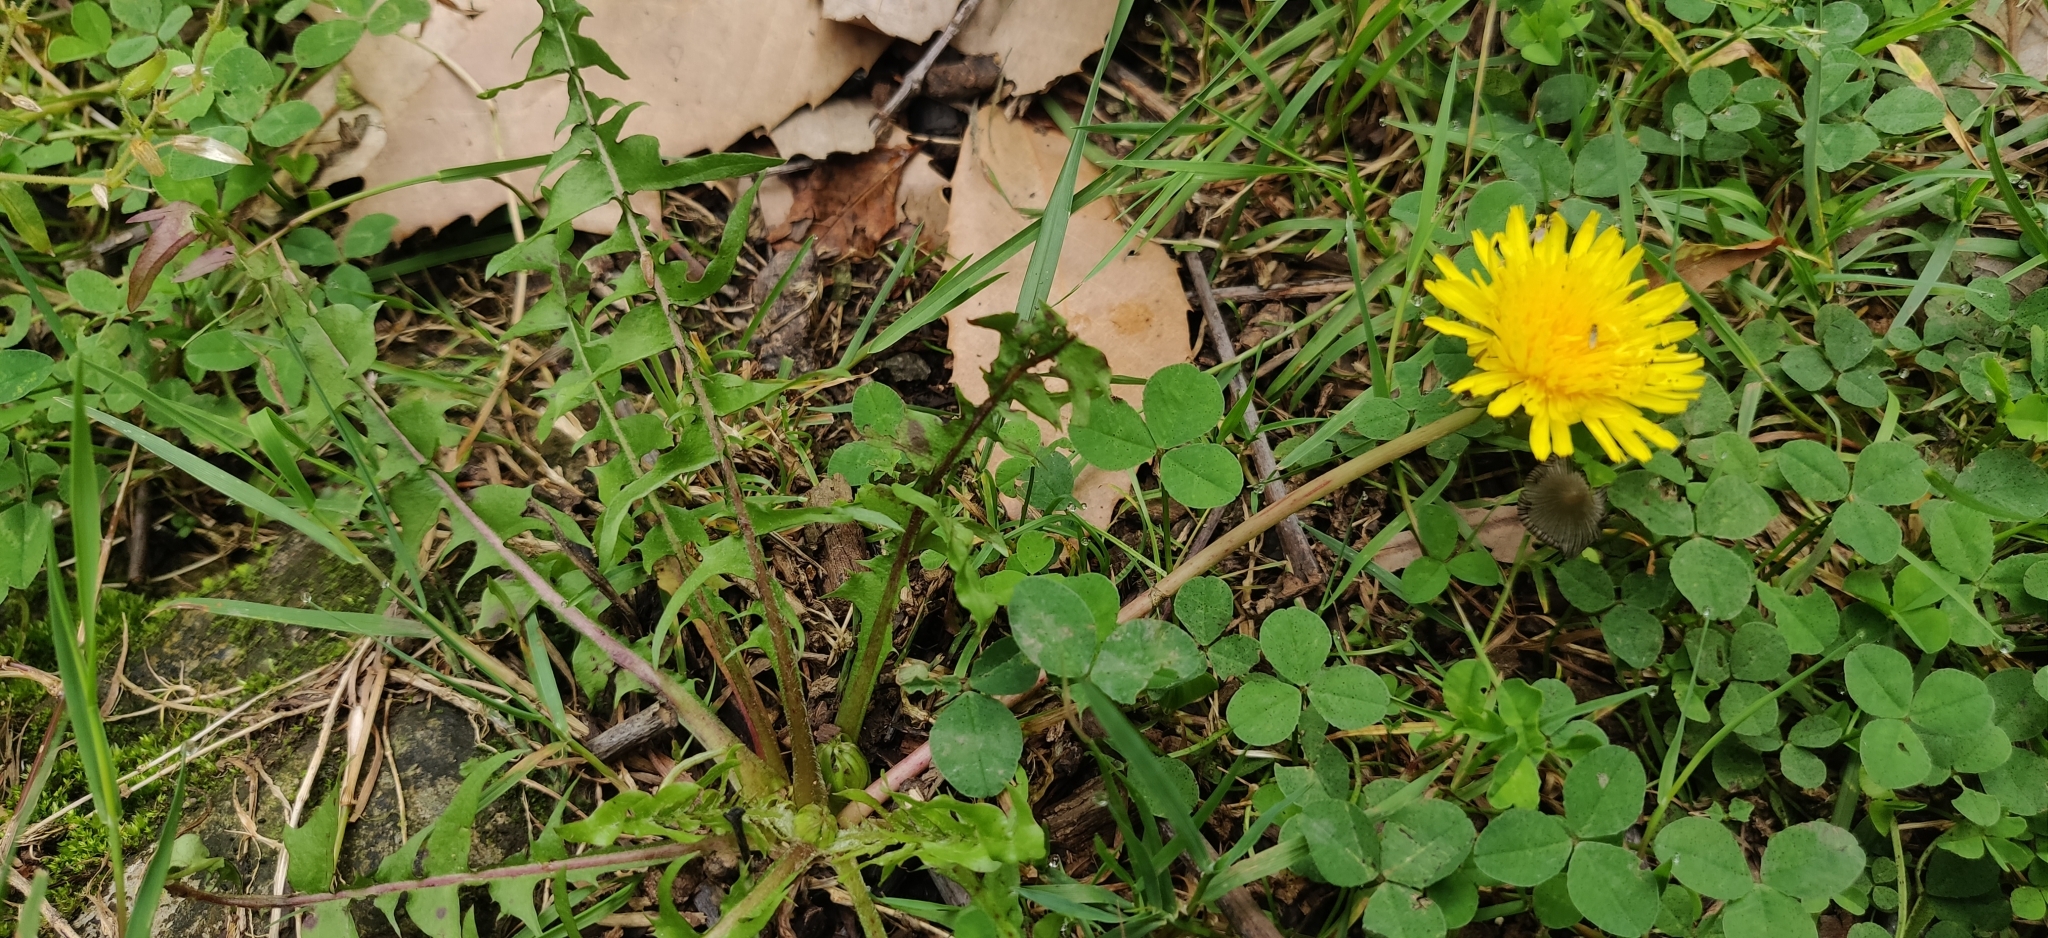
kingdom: Plantae
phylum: Tracheophyta
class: Magnoliopsida
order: Asterales
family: Asteraceae
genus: Taraxacum
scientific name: Taraxacum officinale
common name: Common dandelion
